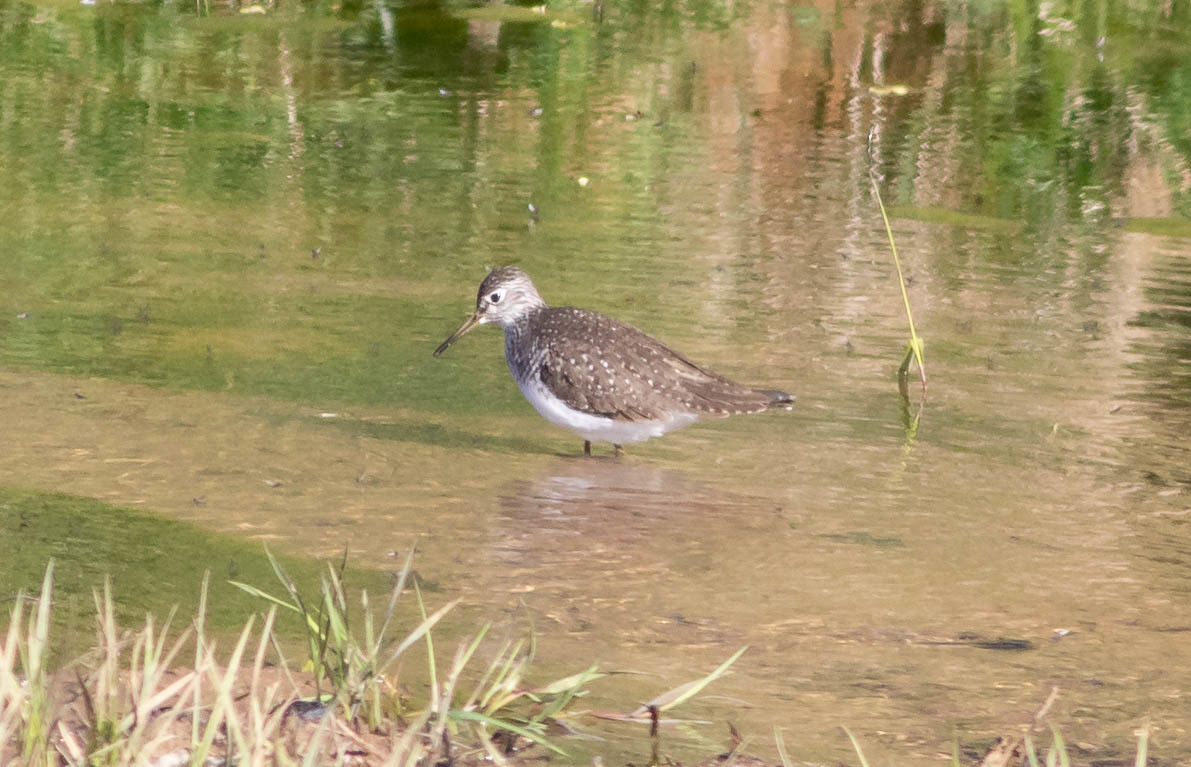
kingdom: Animalia
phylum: Chordata
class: Aves
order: Charadriiformes
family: Scolopacidae
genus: Tringa
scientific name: Tringa solitaria
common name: Solitary sandpiper
